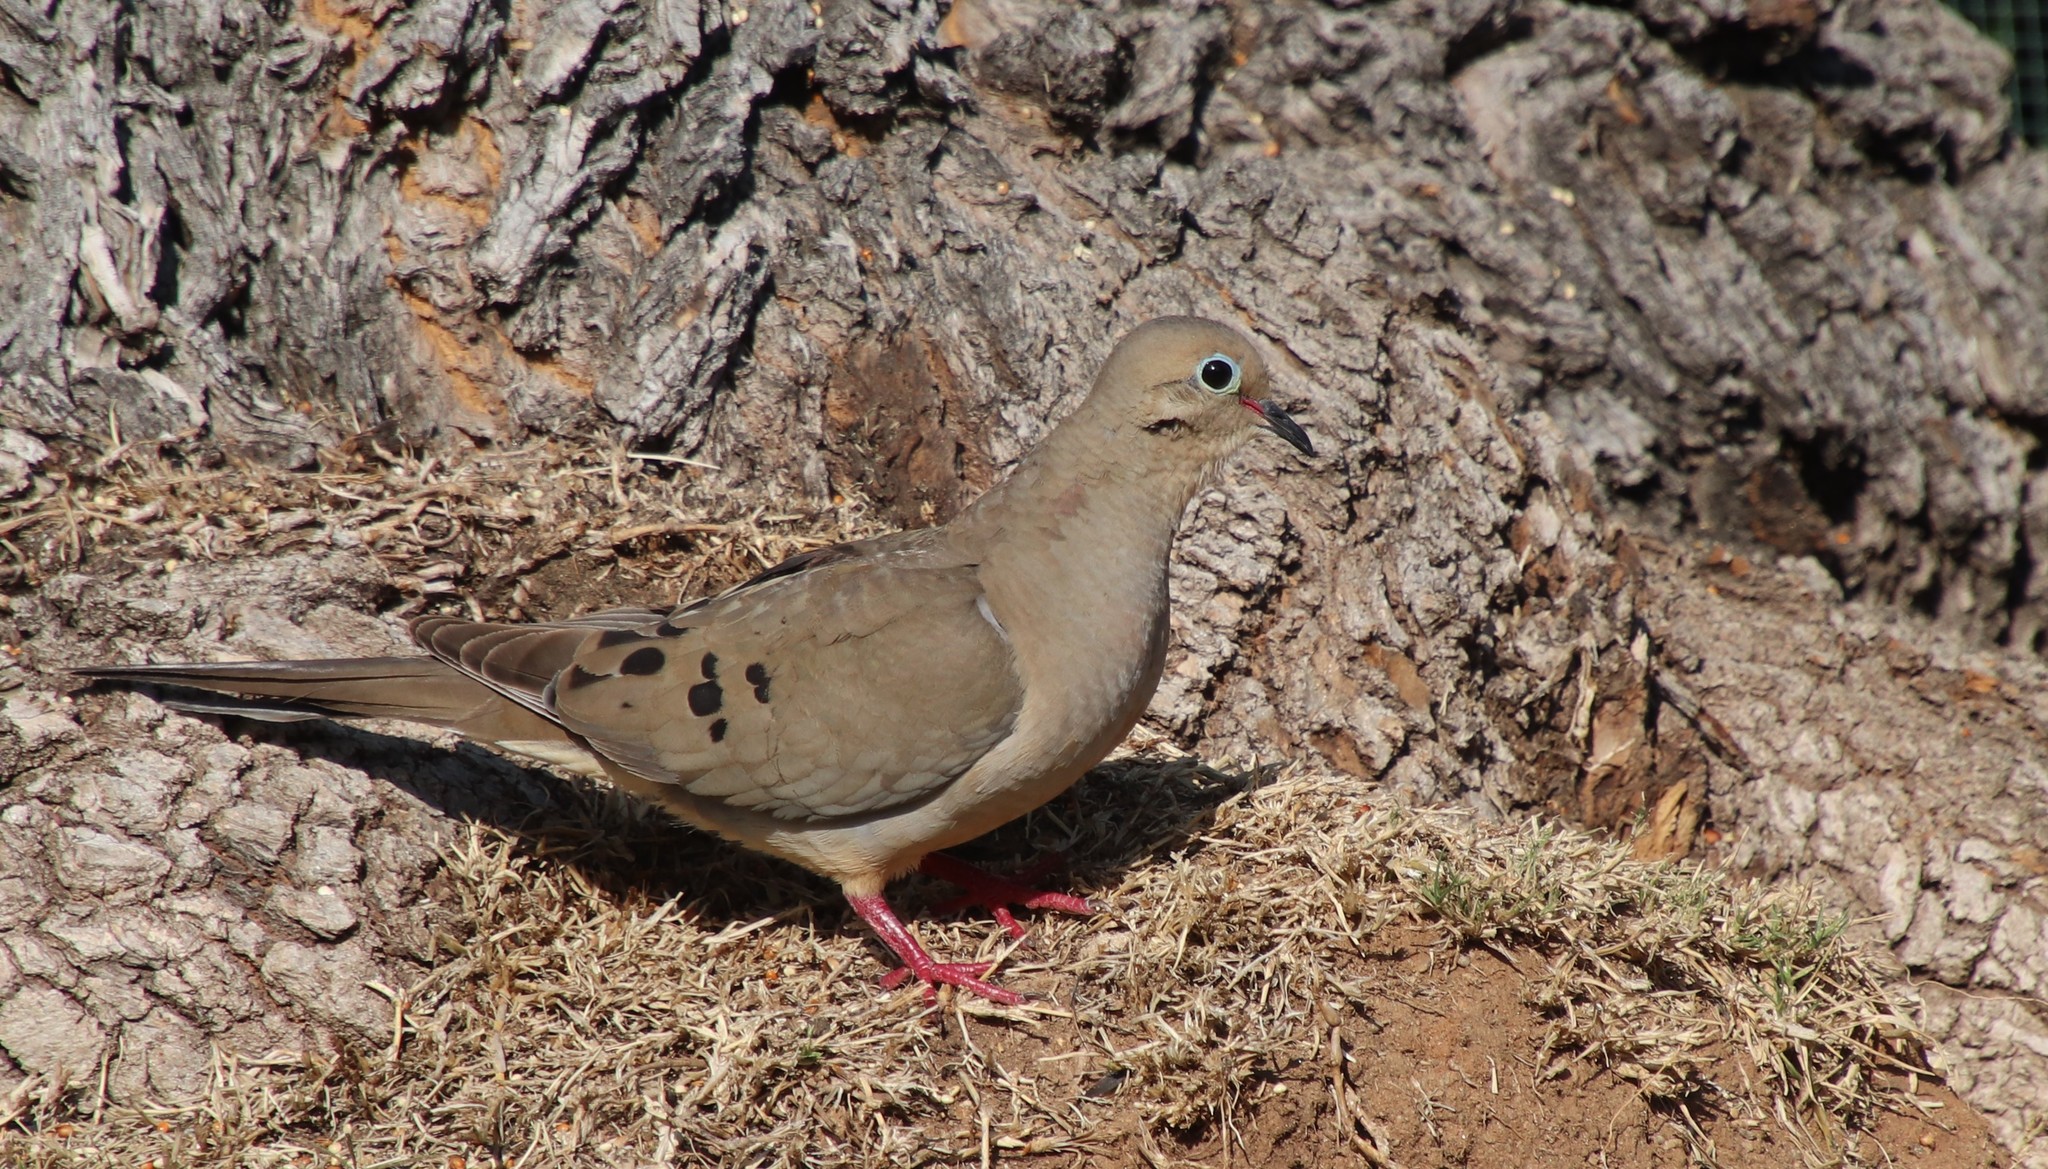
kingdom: Animalia
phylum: Chordata
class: Aves
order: Columbiformes
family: Columbidae
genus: Zenaida
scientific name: Zenaida macroura
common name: Mourning dove
